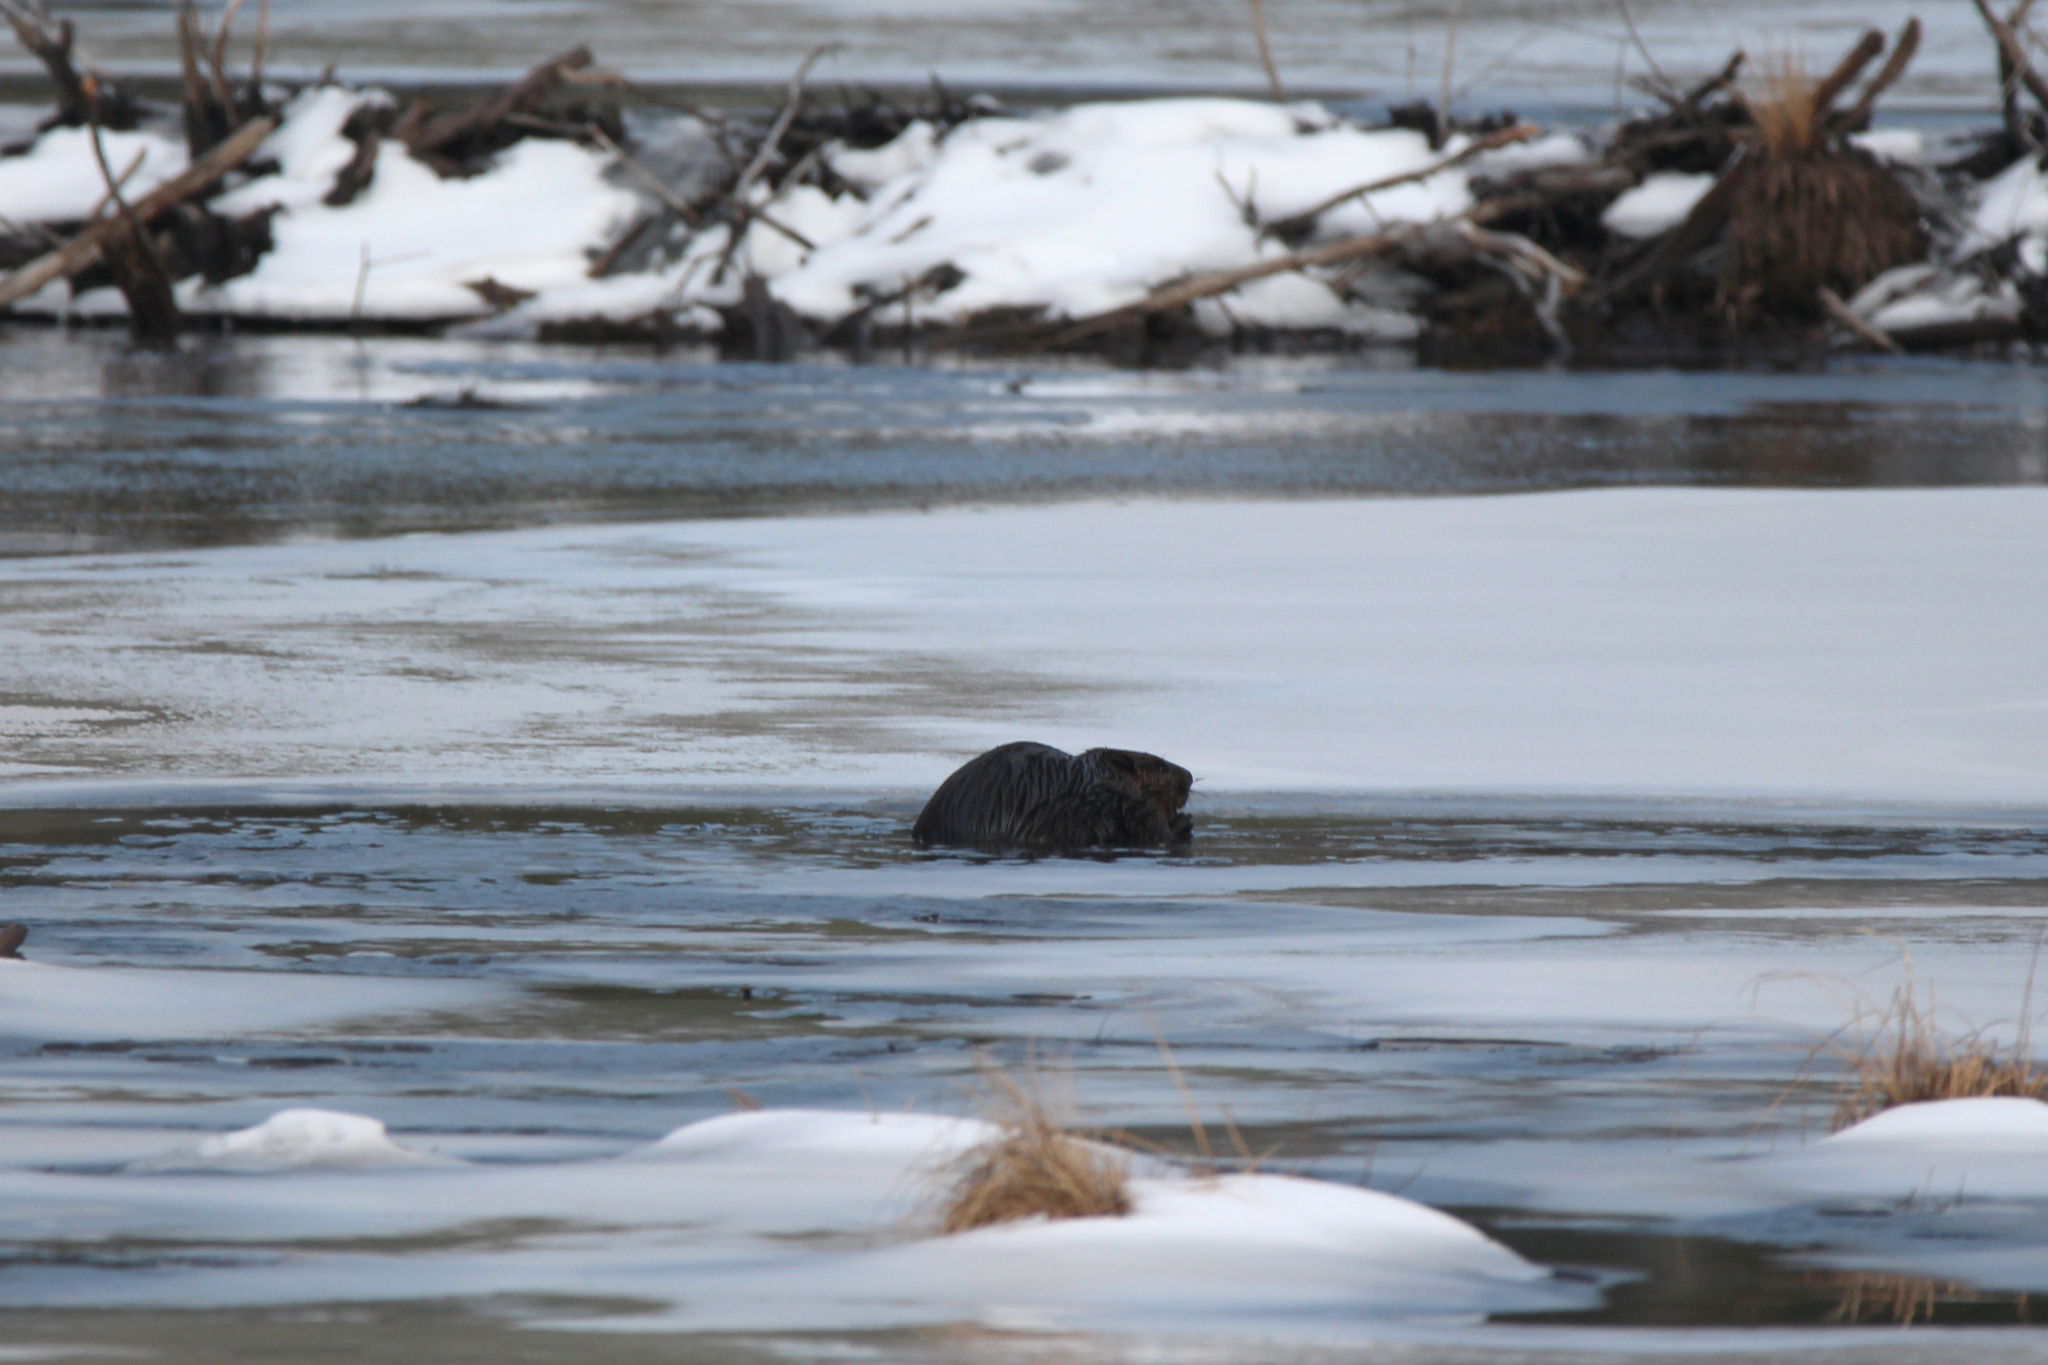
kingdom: Animalia
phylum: Chordata
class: Mammalia
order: Rodentia
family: Castoridae
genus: Castor
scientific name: Castor canadensis
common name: American beaver
